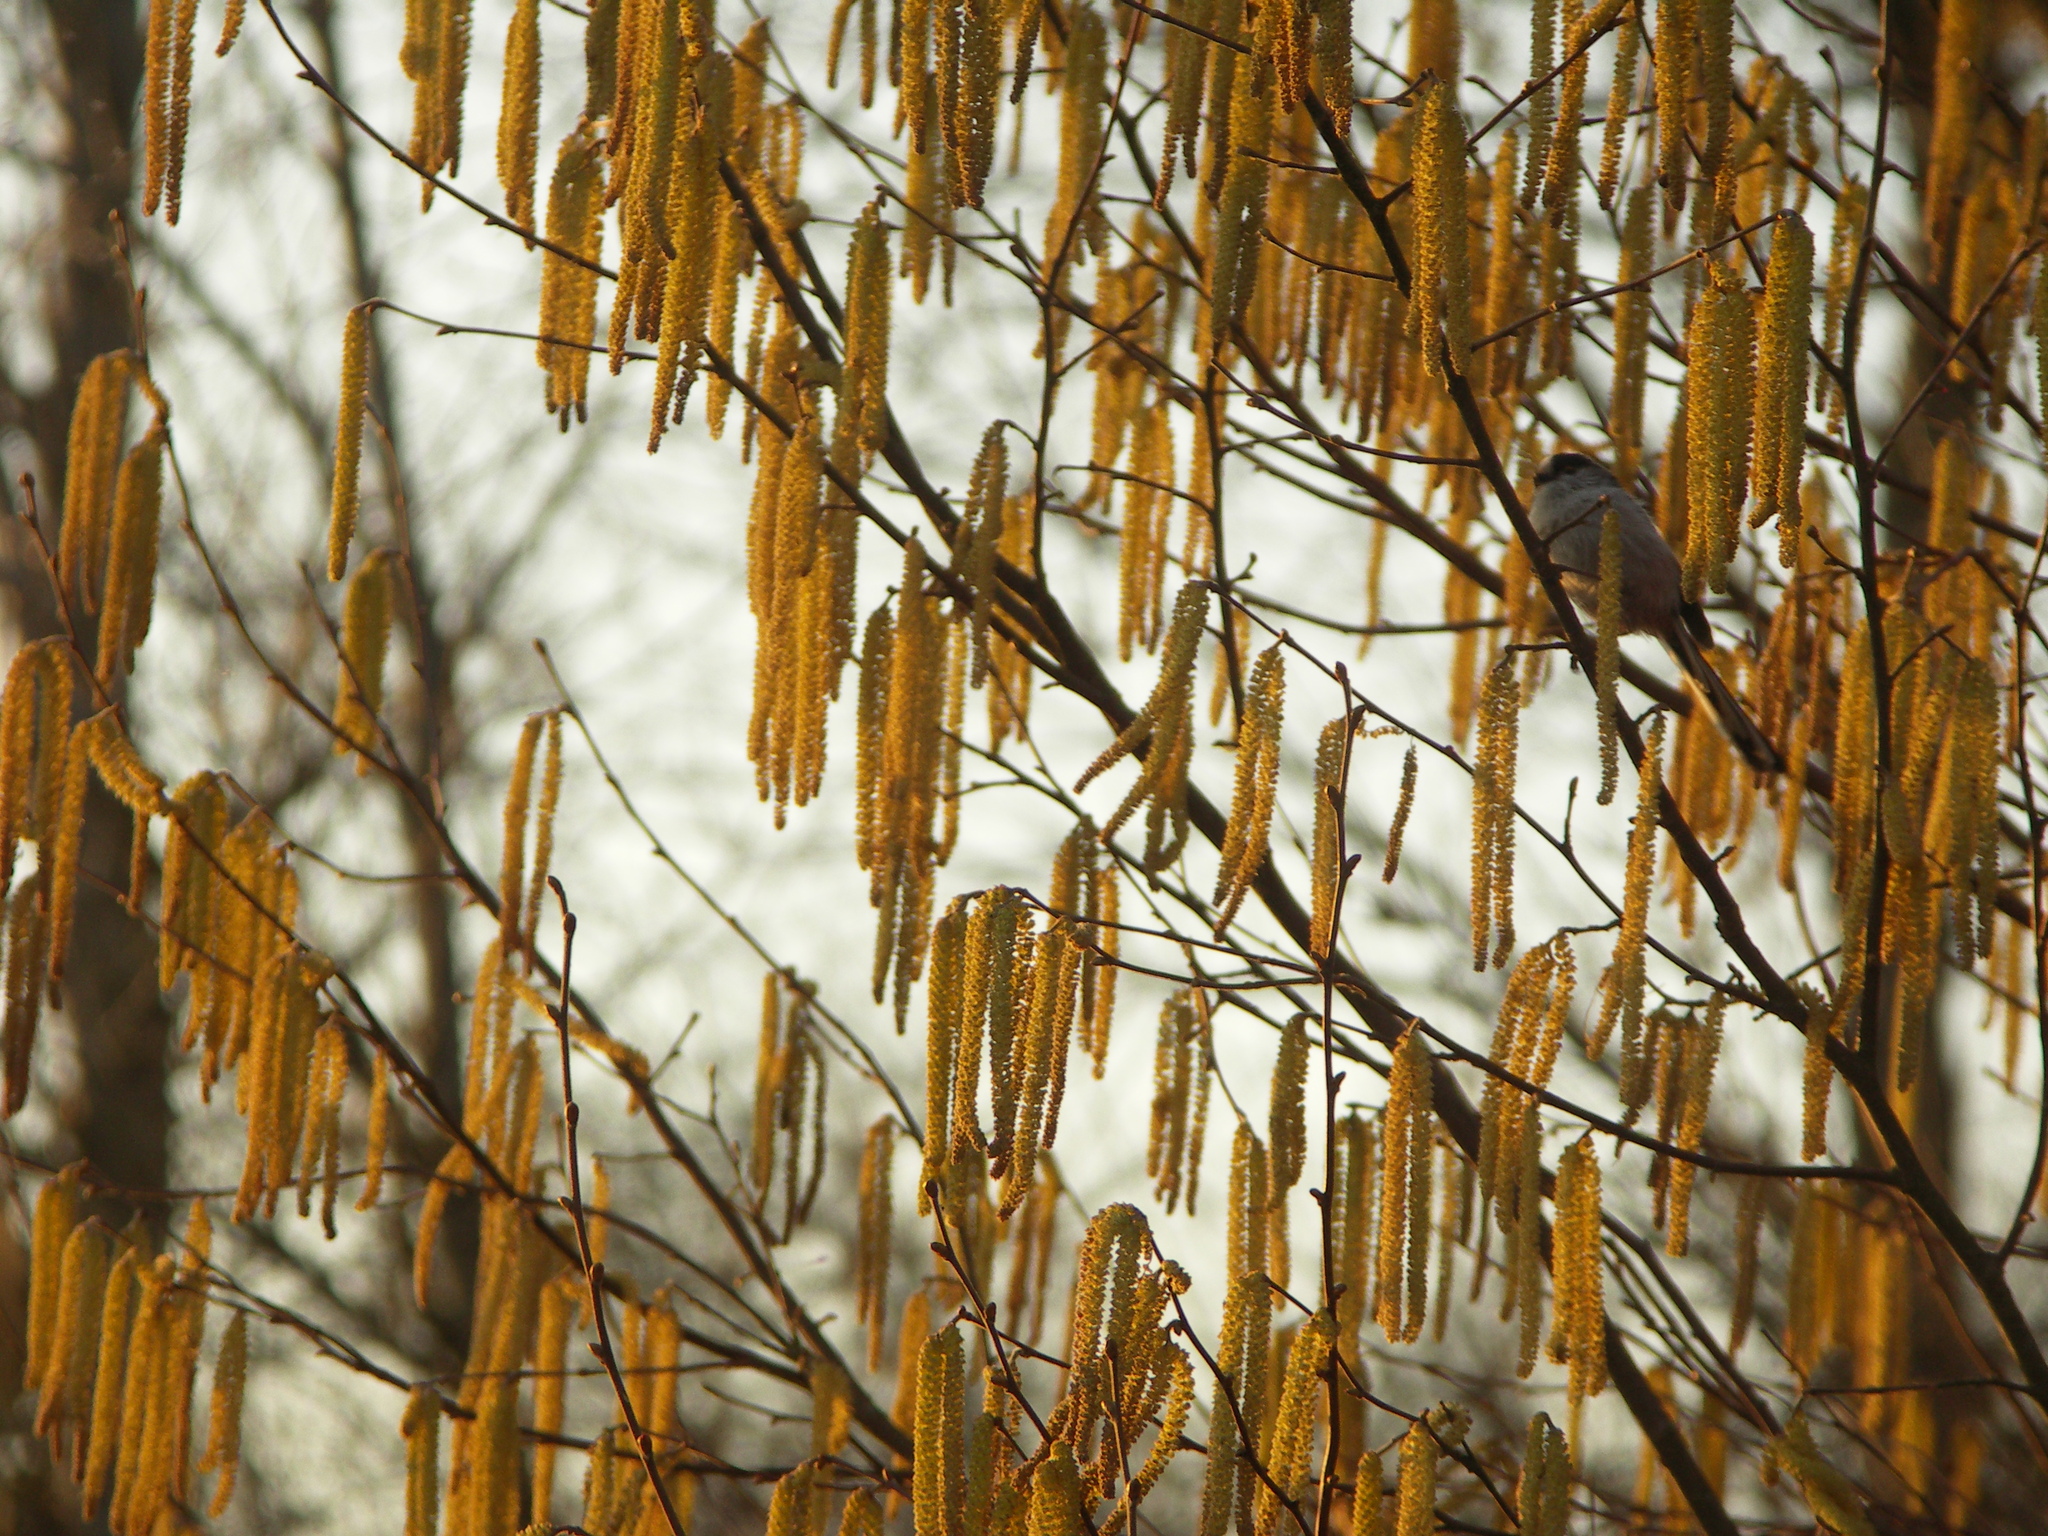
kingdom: Animalia
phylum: Chordata
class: Aves
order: Passeriformes
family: Aegithalidae
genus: Aegithalos
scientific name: Aegithalos caudatus
